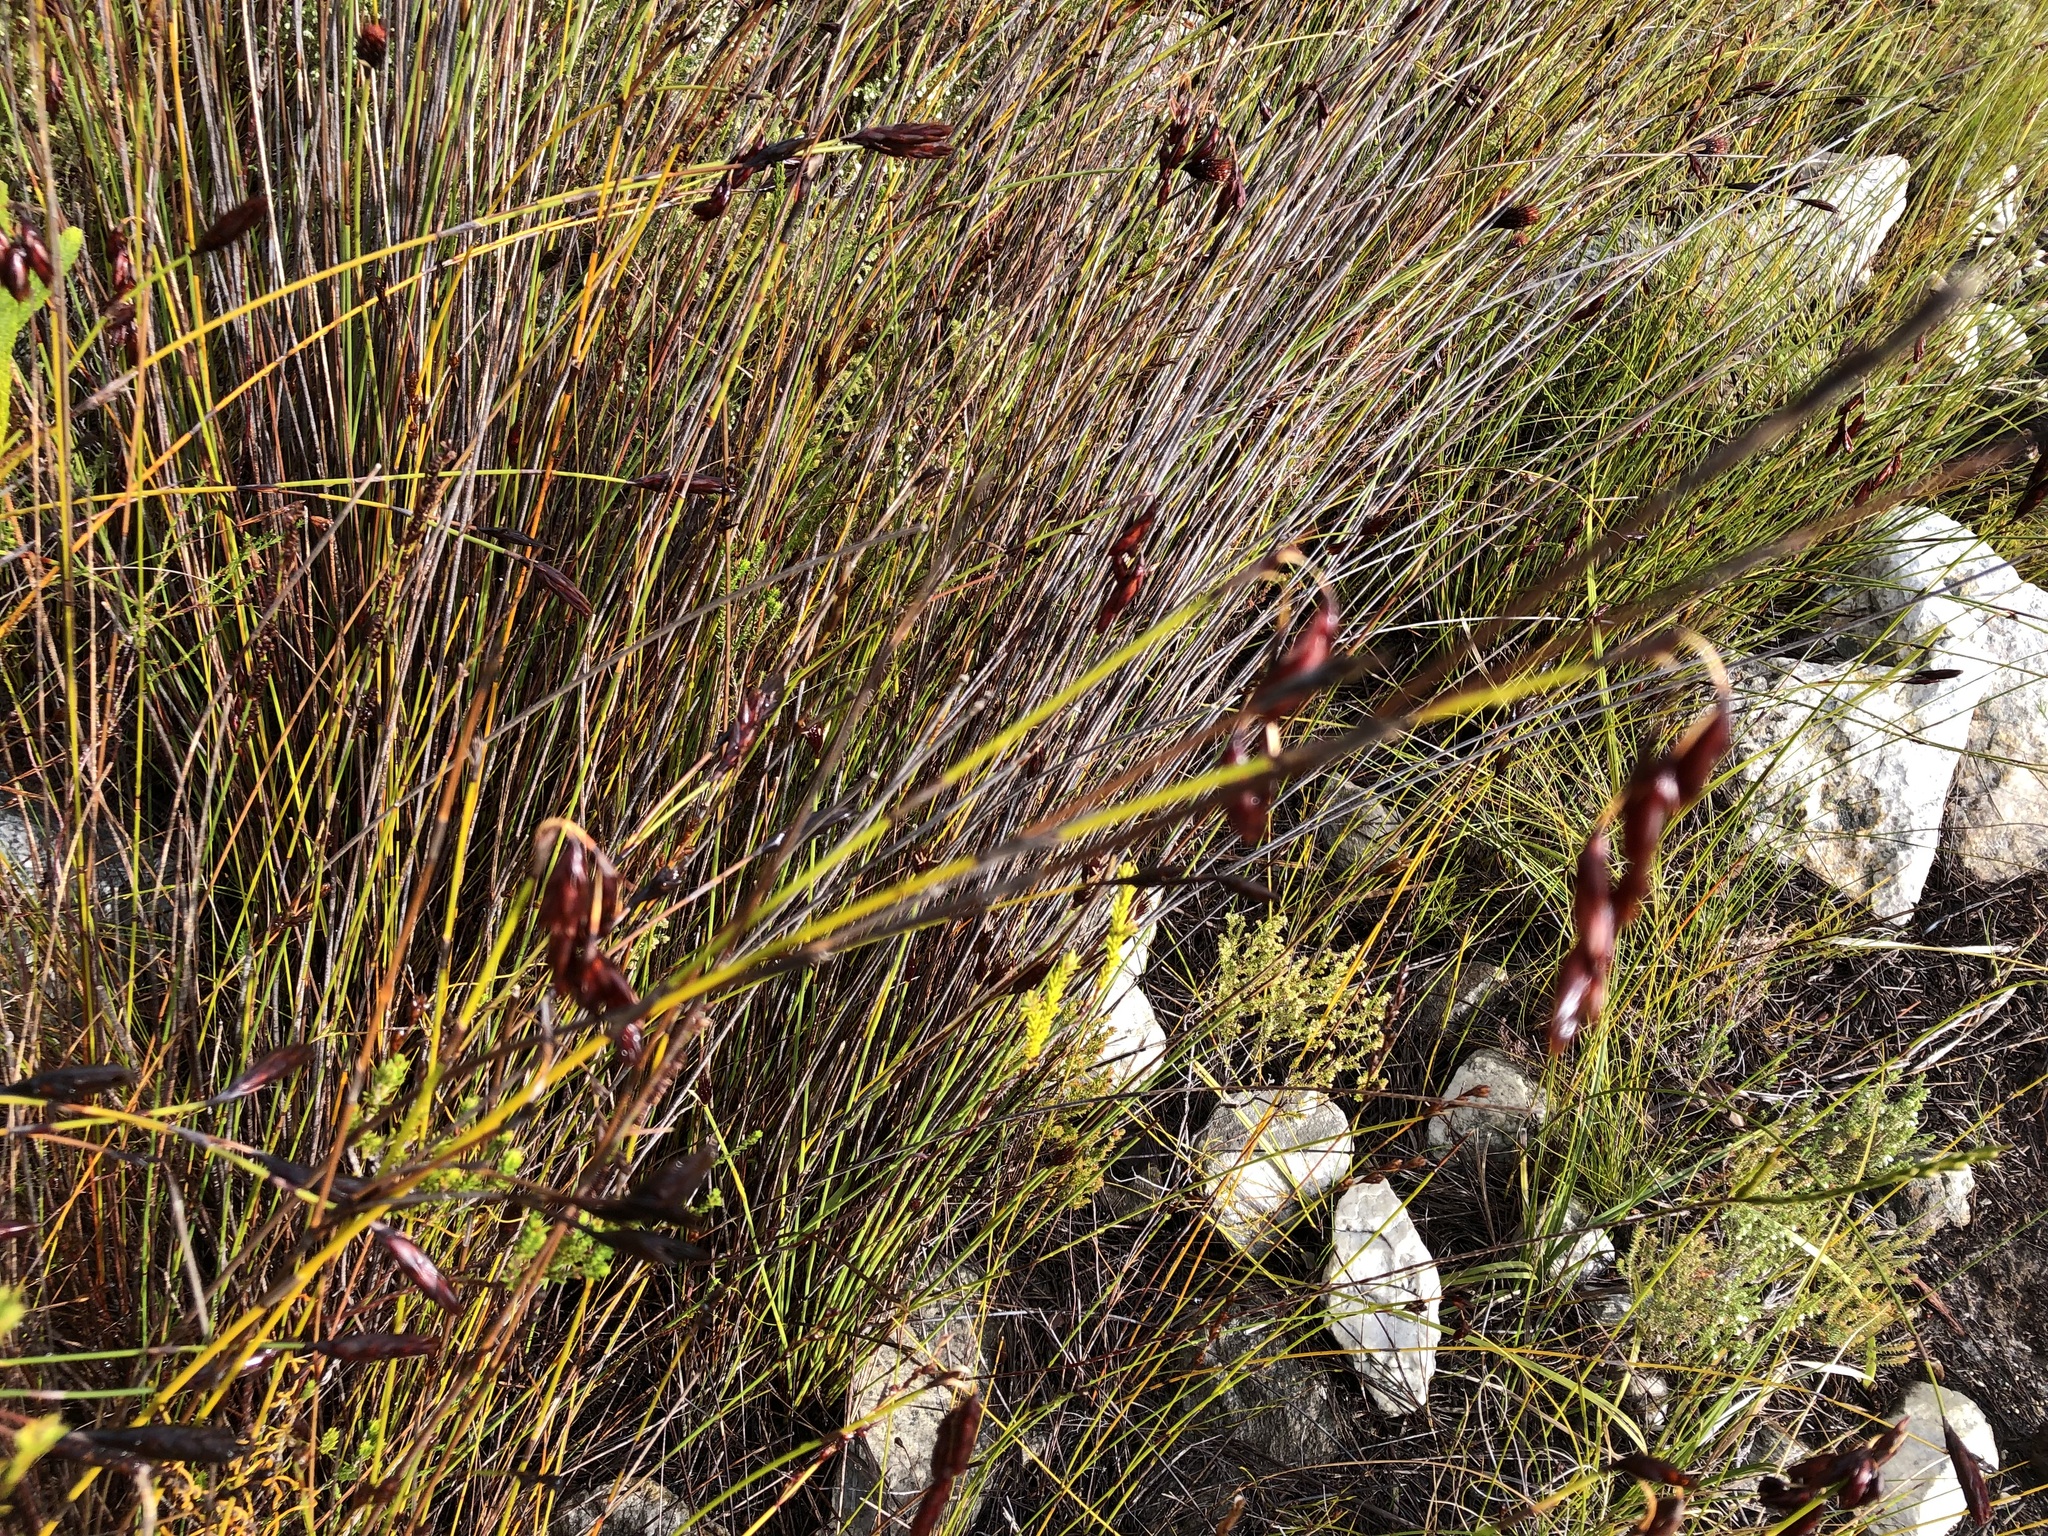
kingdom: Plantae
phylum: Tracheophyta
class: Liliopsida
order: Poales
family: Restionaceae
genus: Restio
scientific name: Restio egregius
